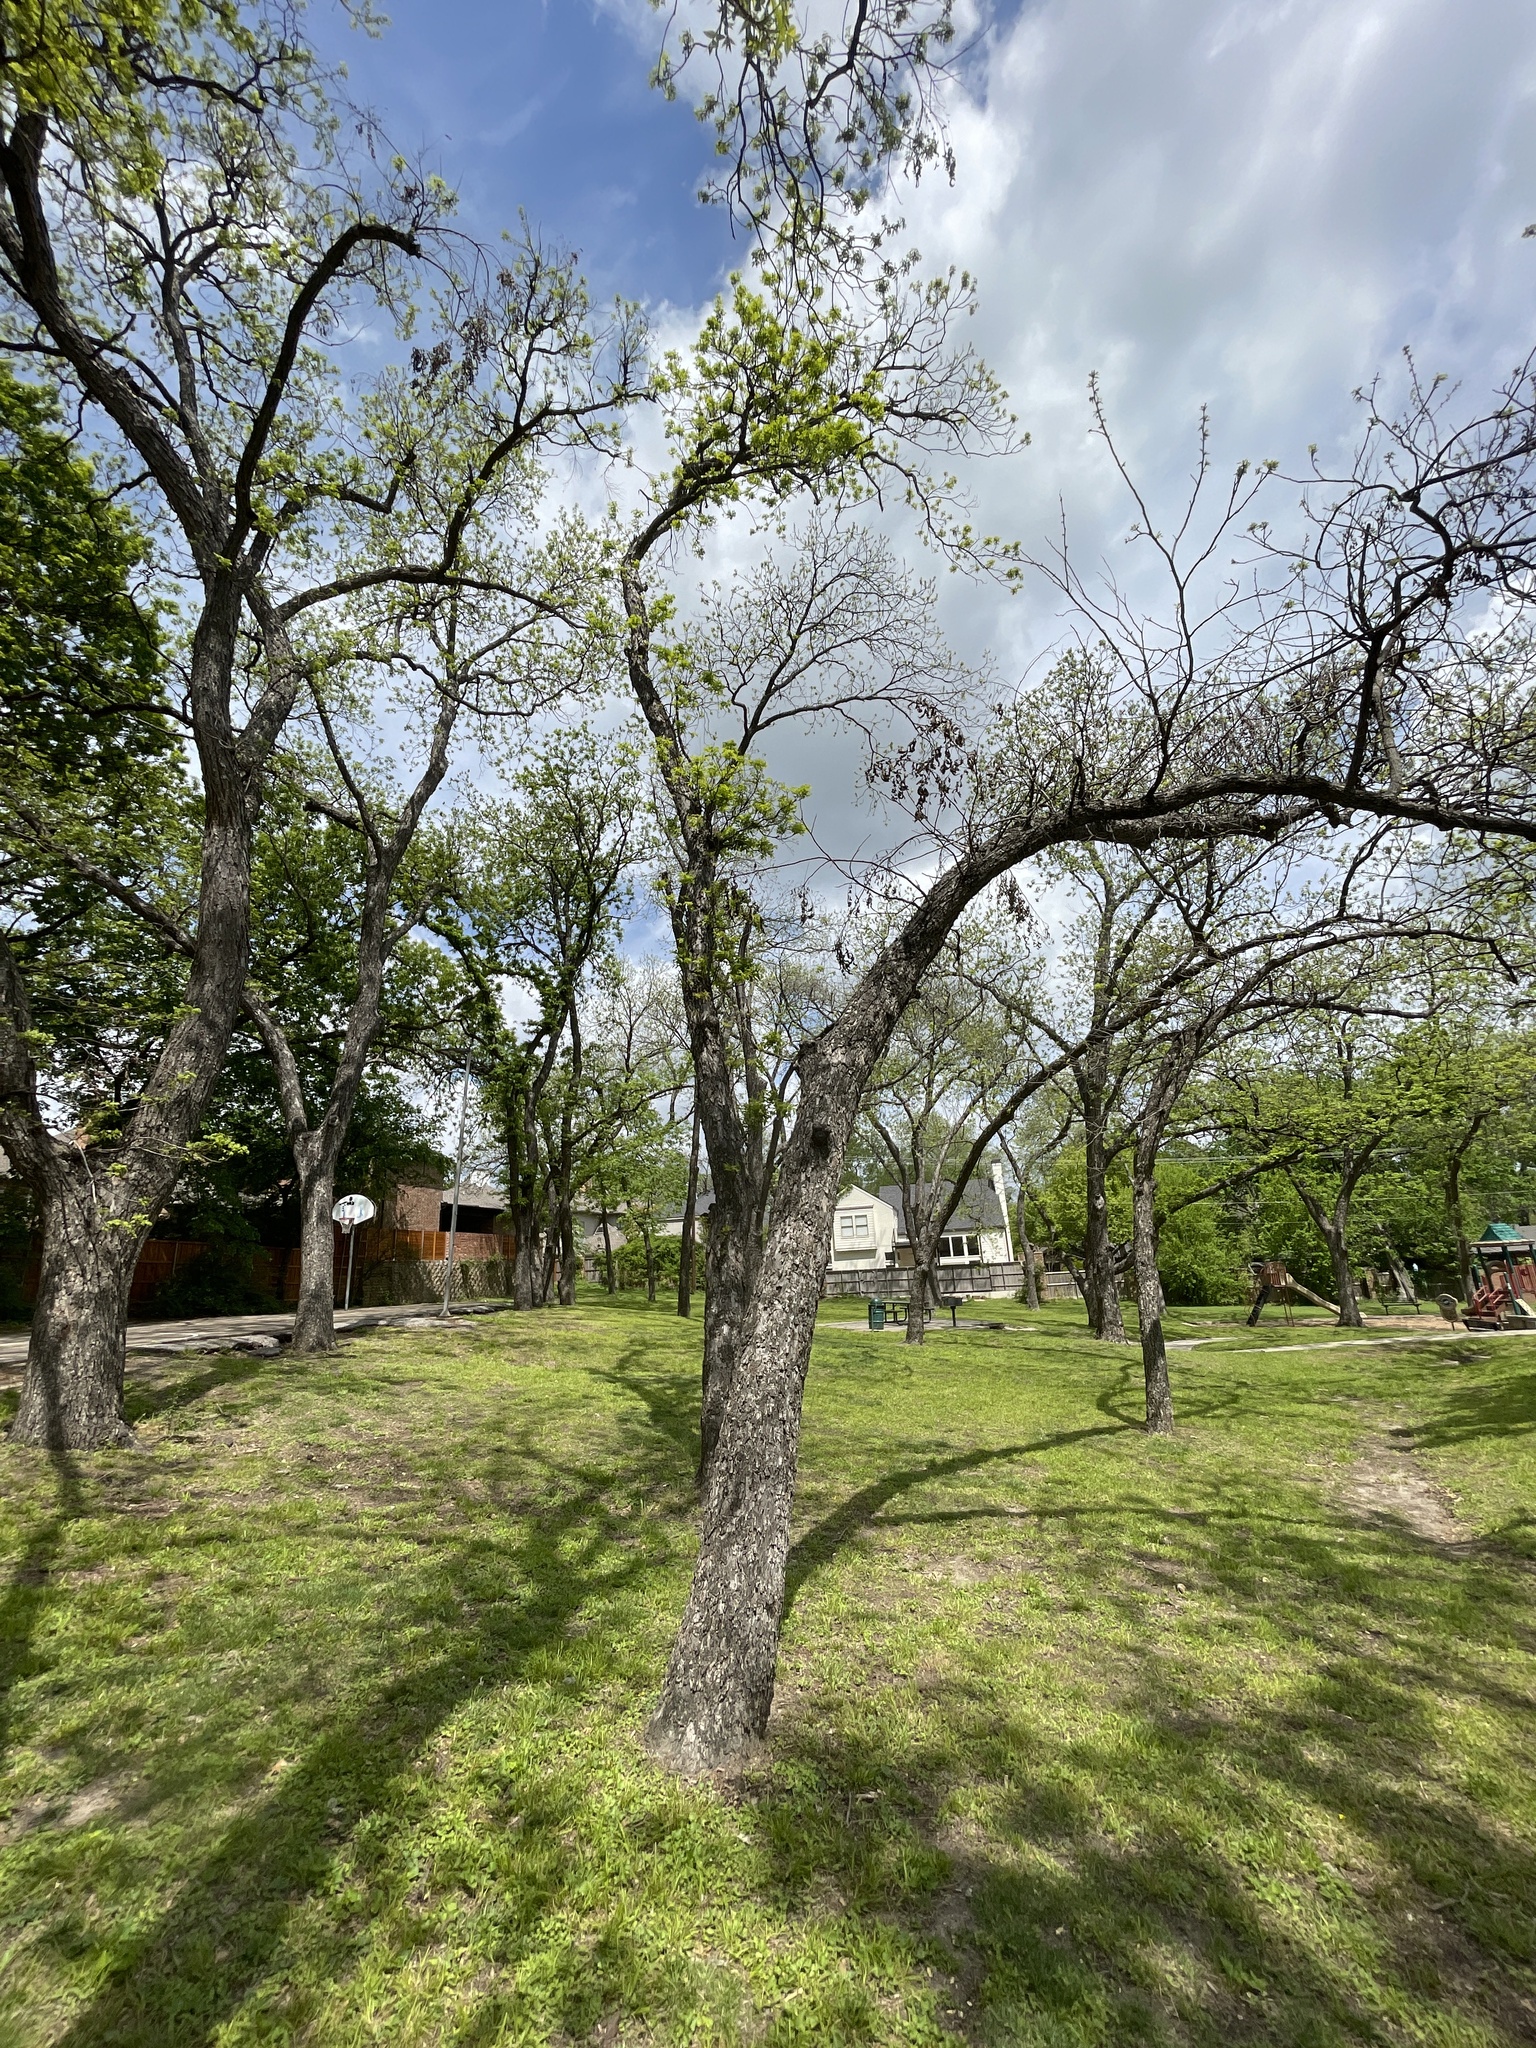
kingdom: Plantae
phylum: Tracheophyta
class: Magnoliopsida
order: Fagales
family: Juglandaceae
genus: Carya
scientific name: Carya illinoinensis
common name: Pecan
